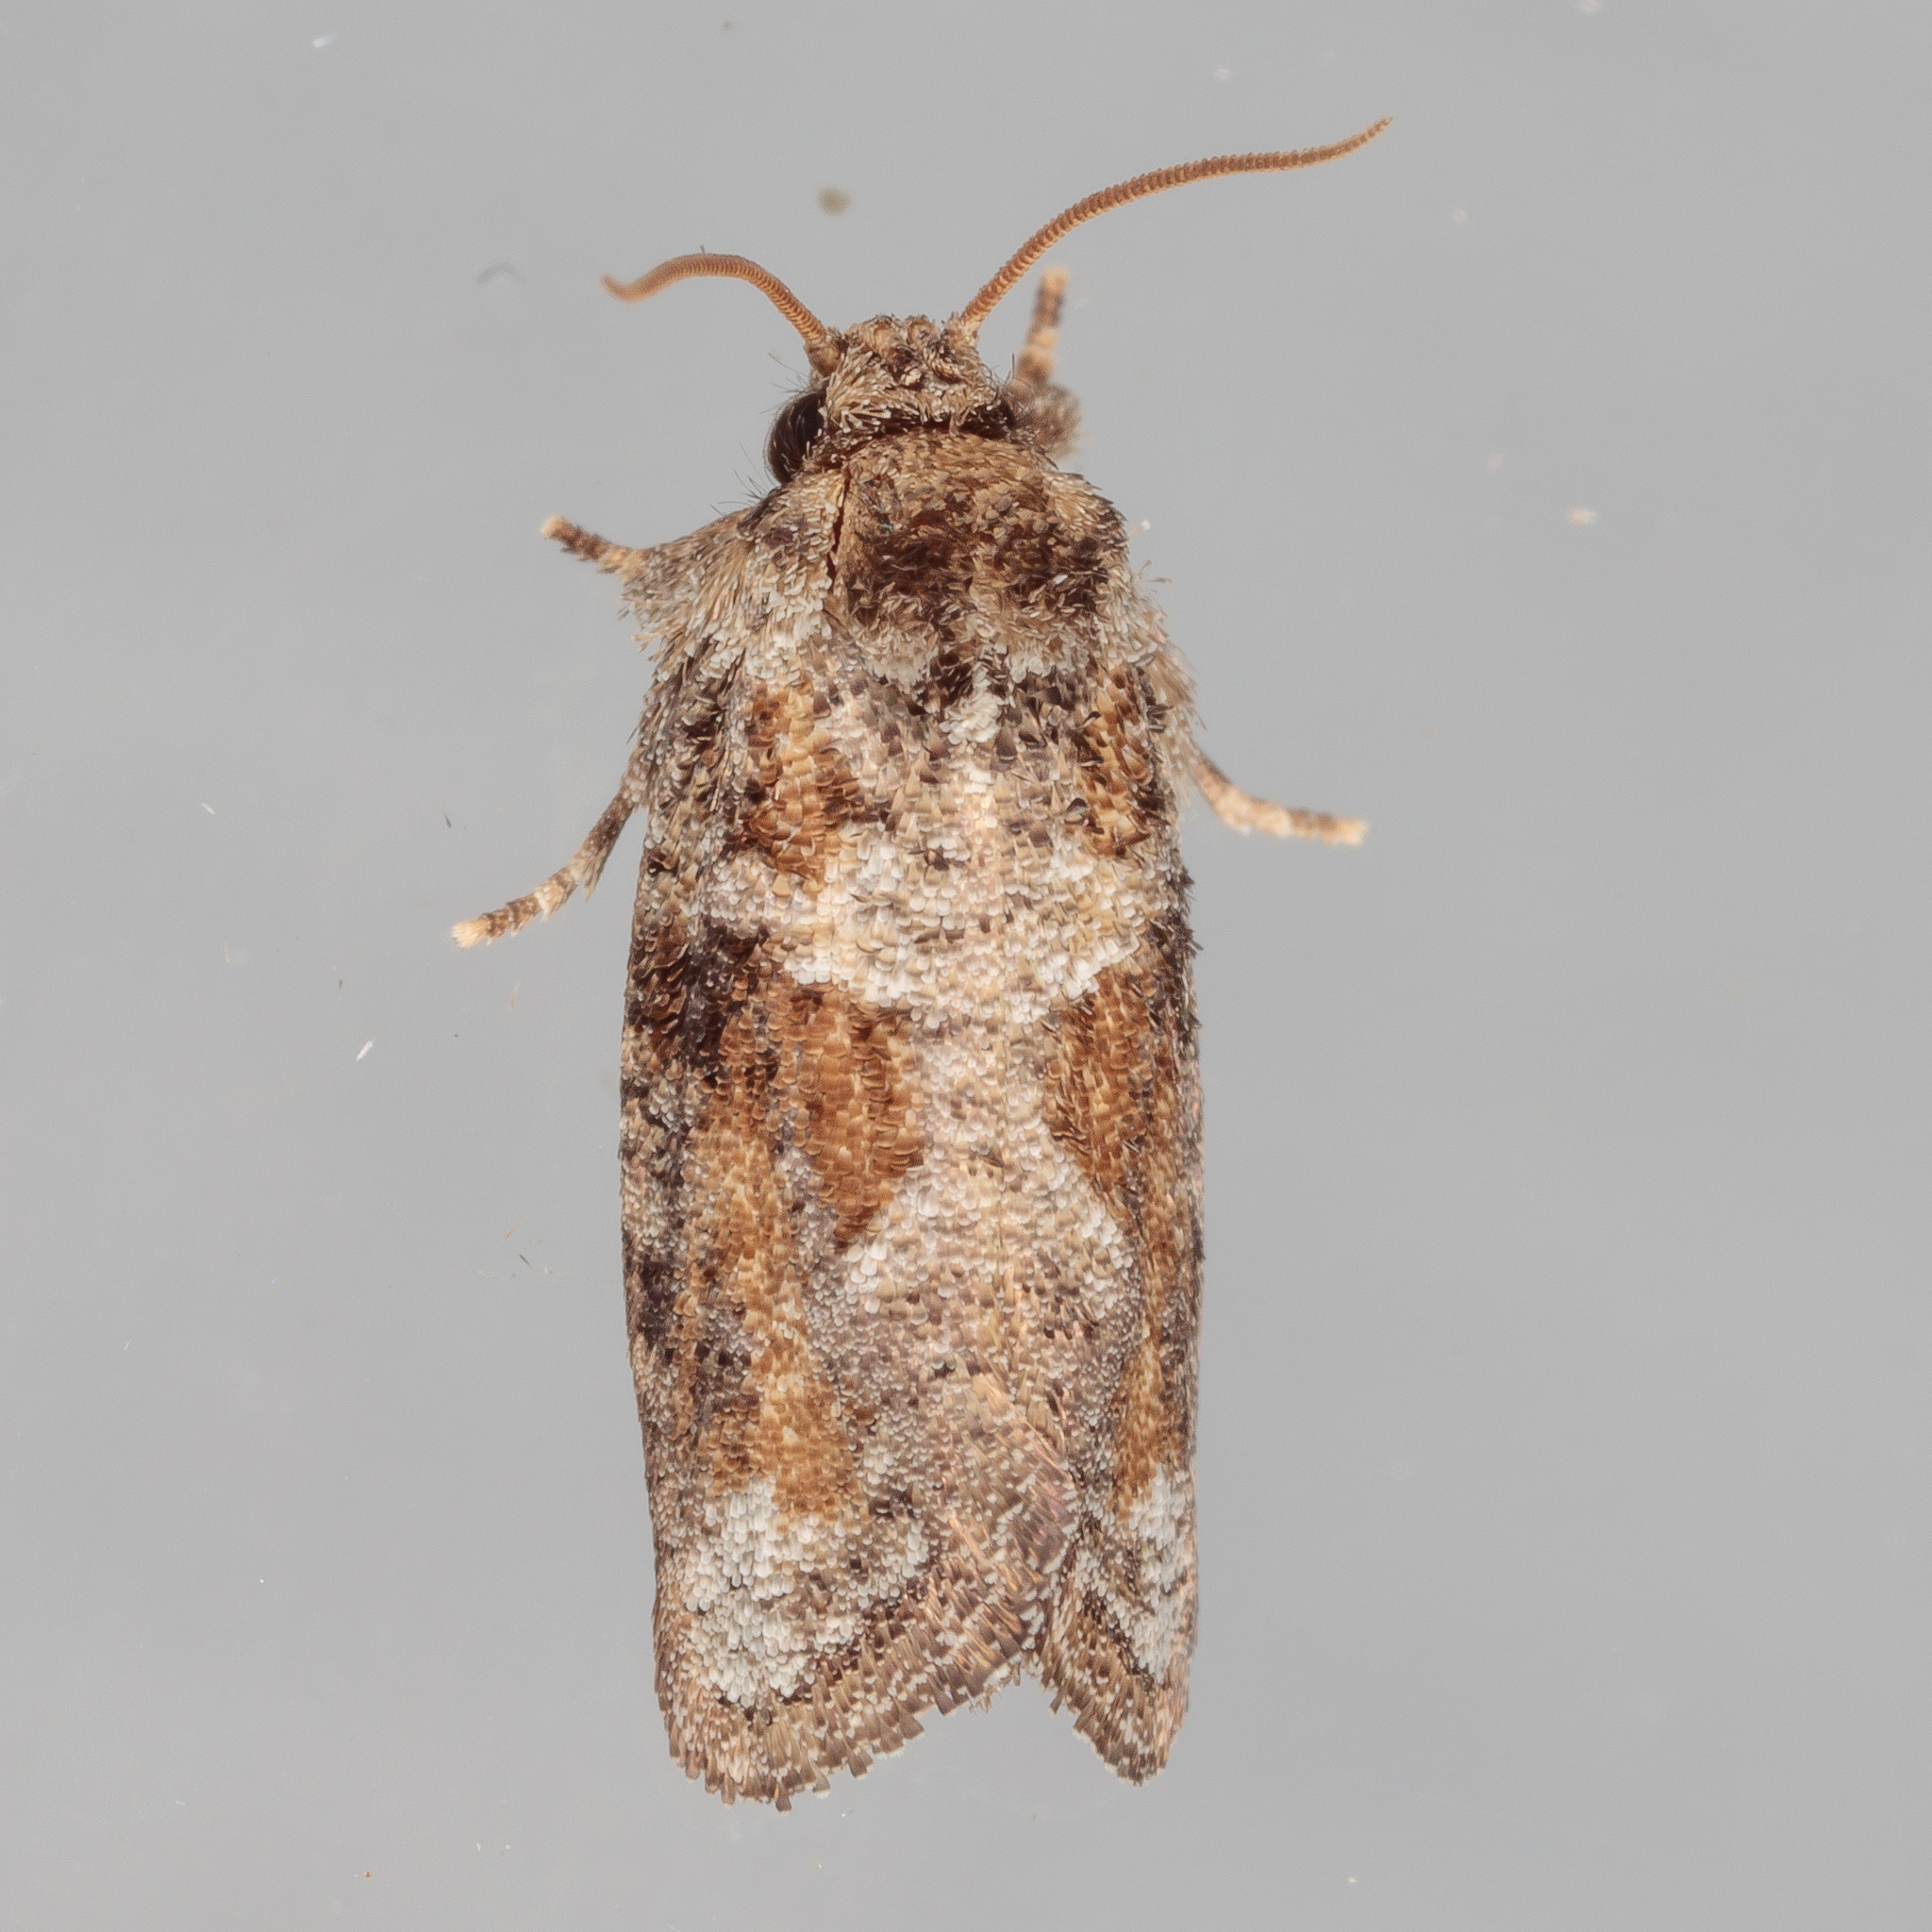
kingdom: Animalia
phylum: Arthropoda
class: Insecta
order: Lepidoptera
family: Tineidae
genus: Acrolophus
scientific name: Acrolophus piger
